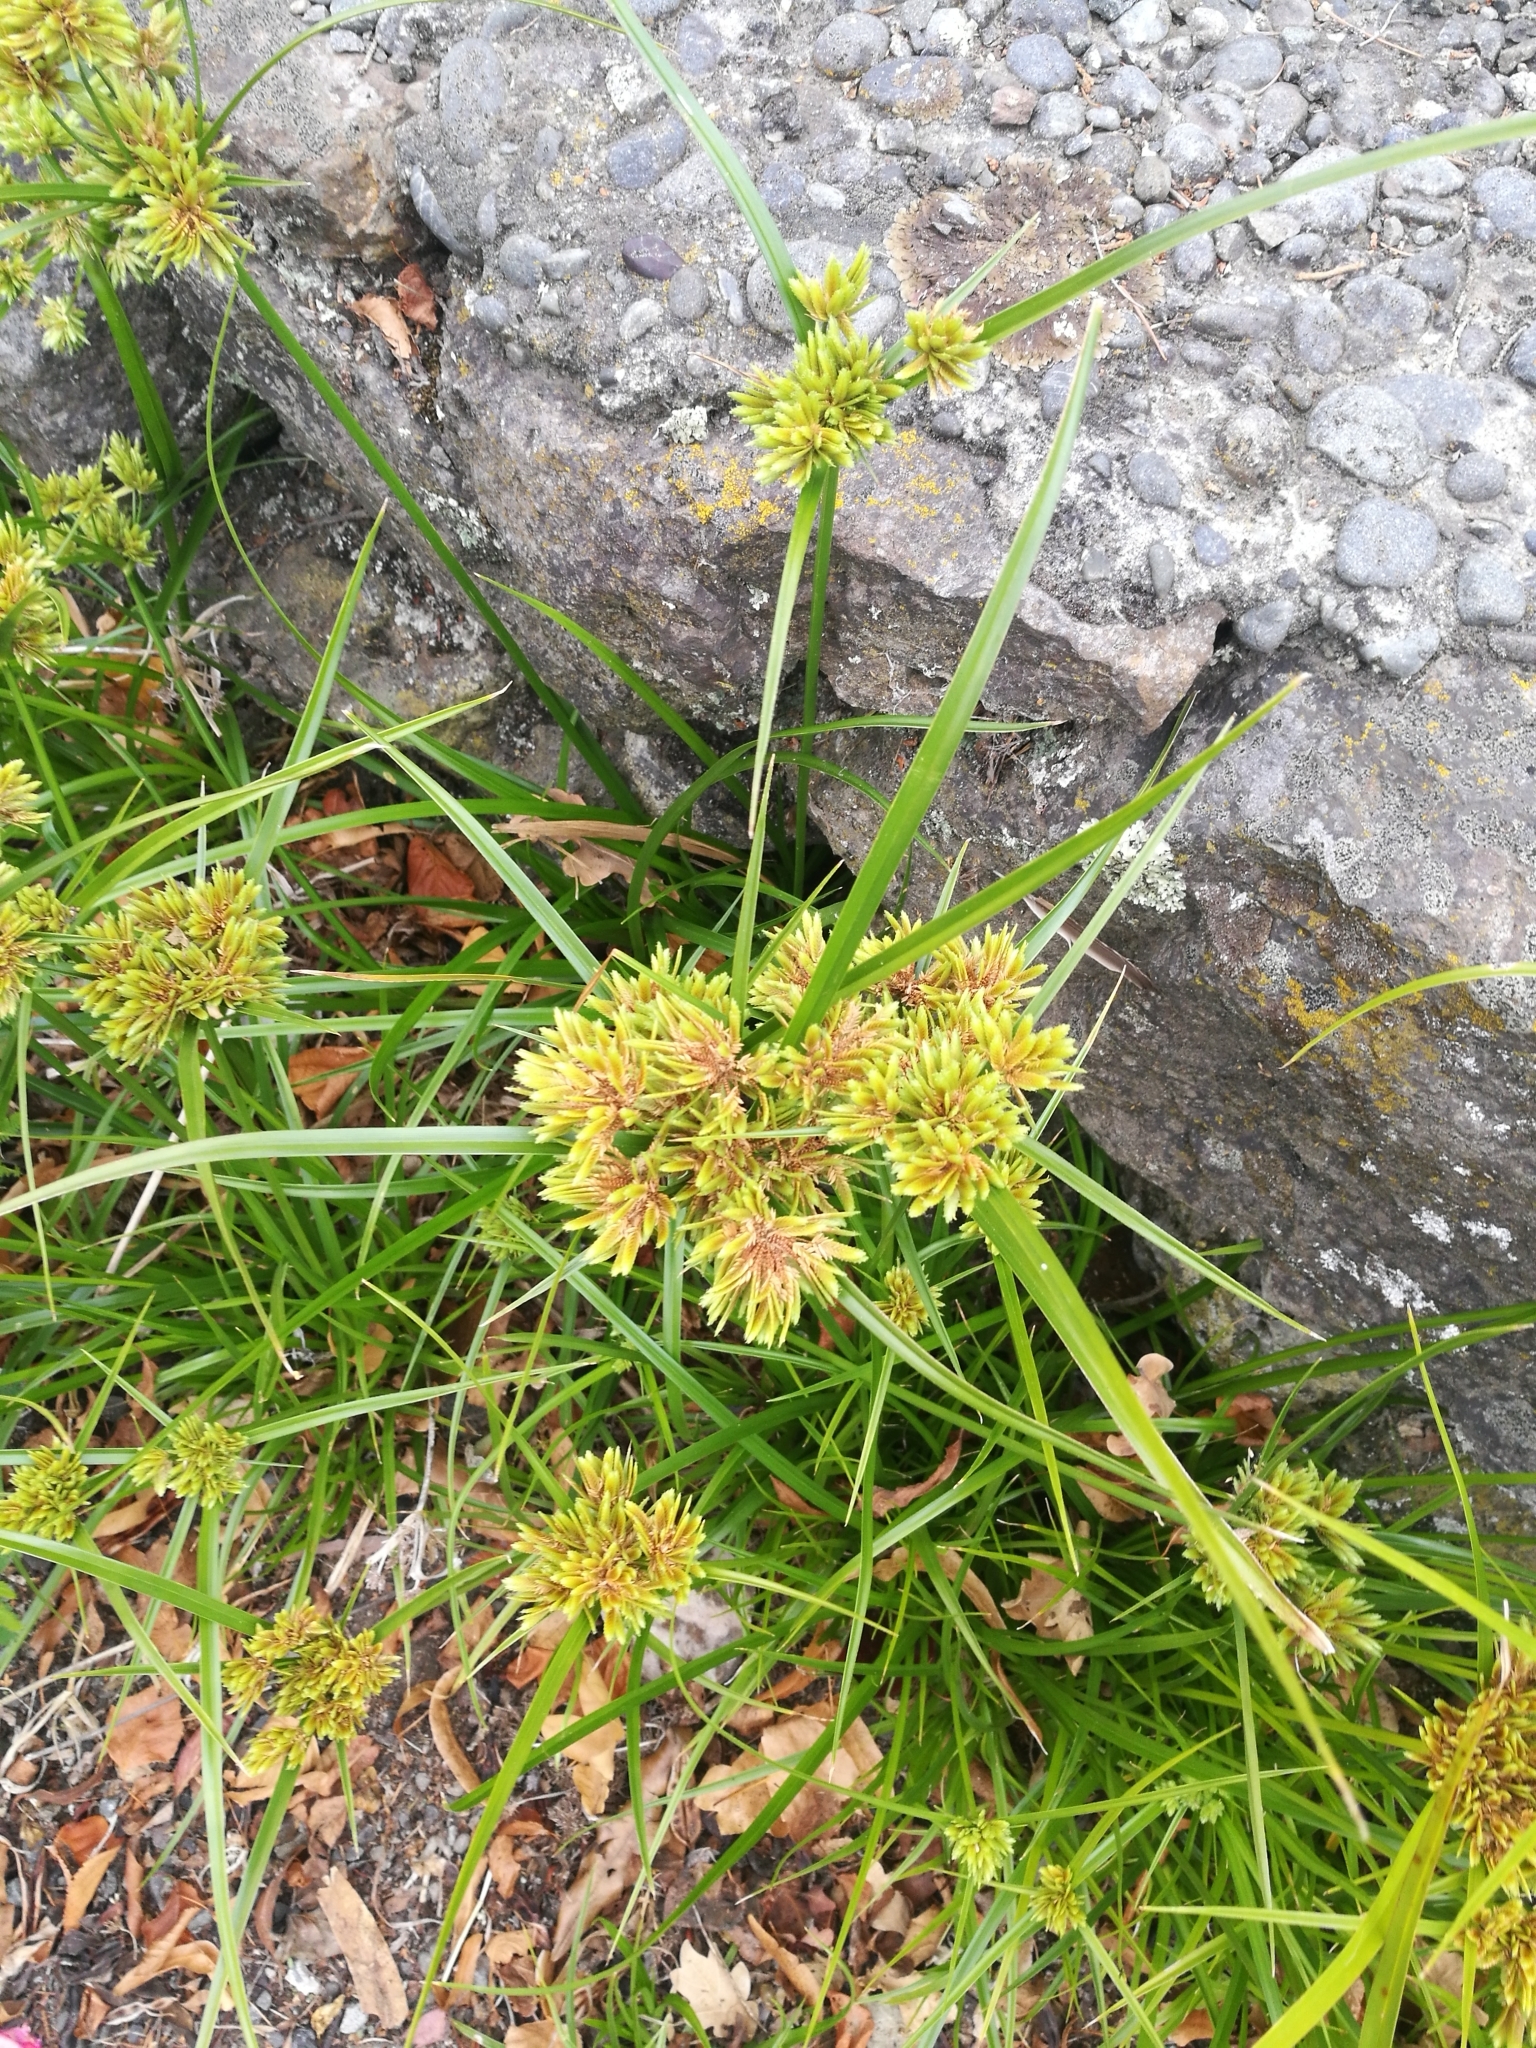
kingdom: Plantae
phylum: Tracheophyta
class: Liliopsida
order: Poales
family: Cyperaceae
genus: Cyperus
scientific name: Cyperus eragrostis
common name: Tall flatsedge
